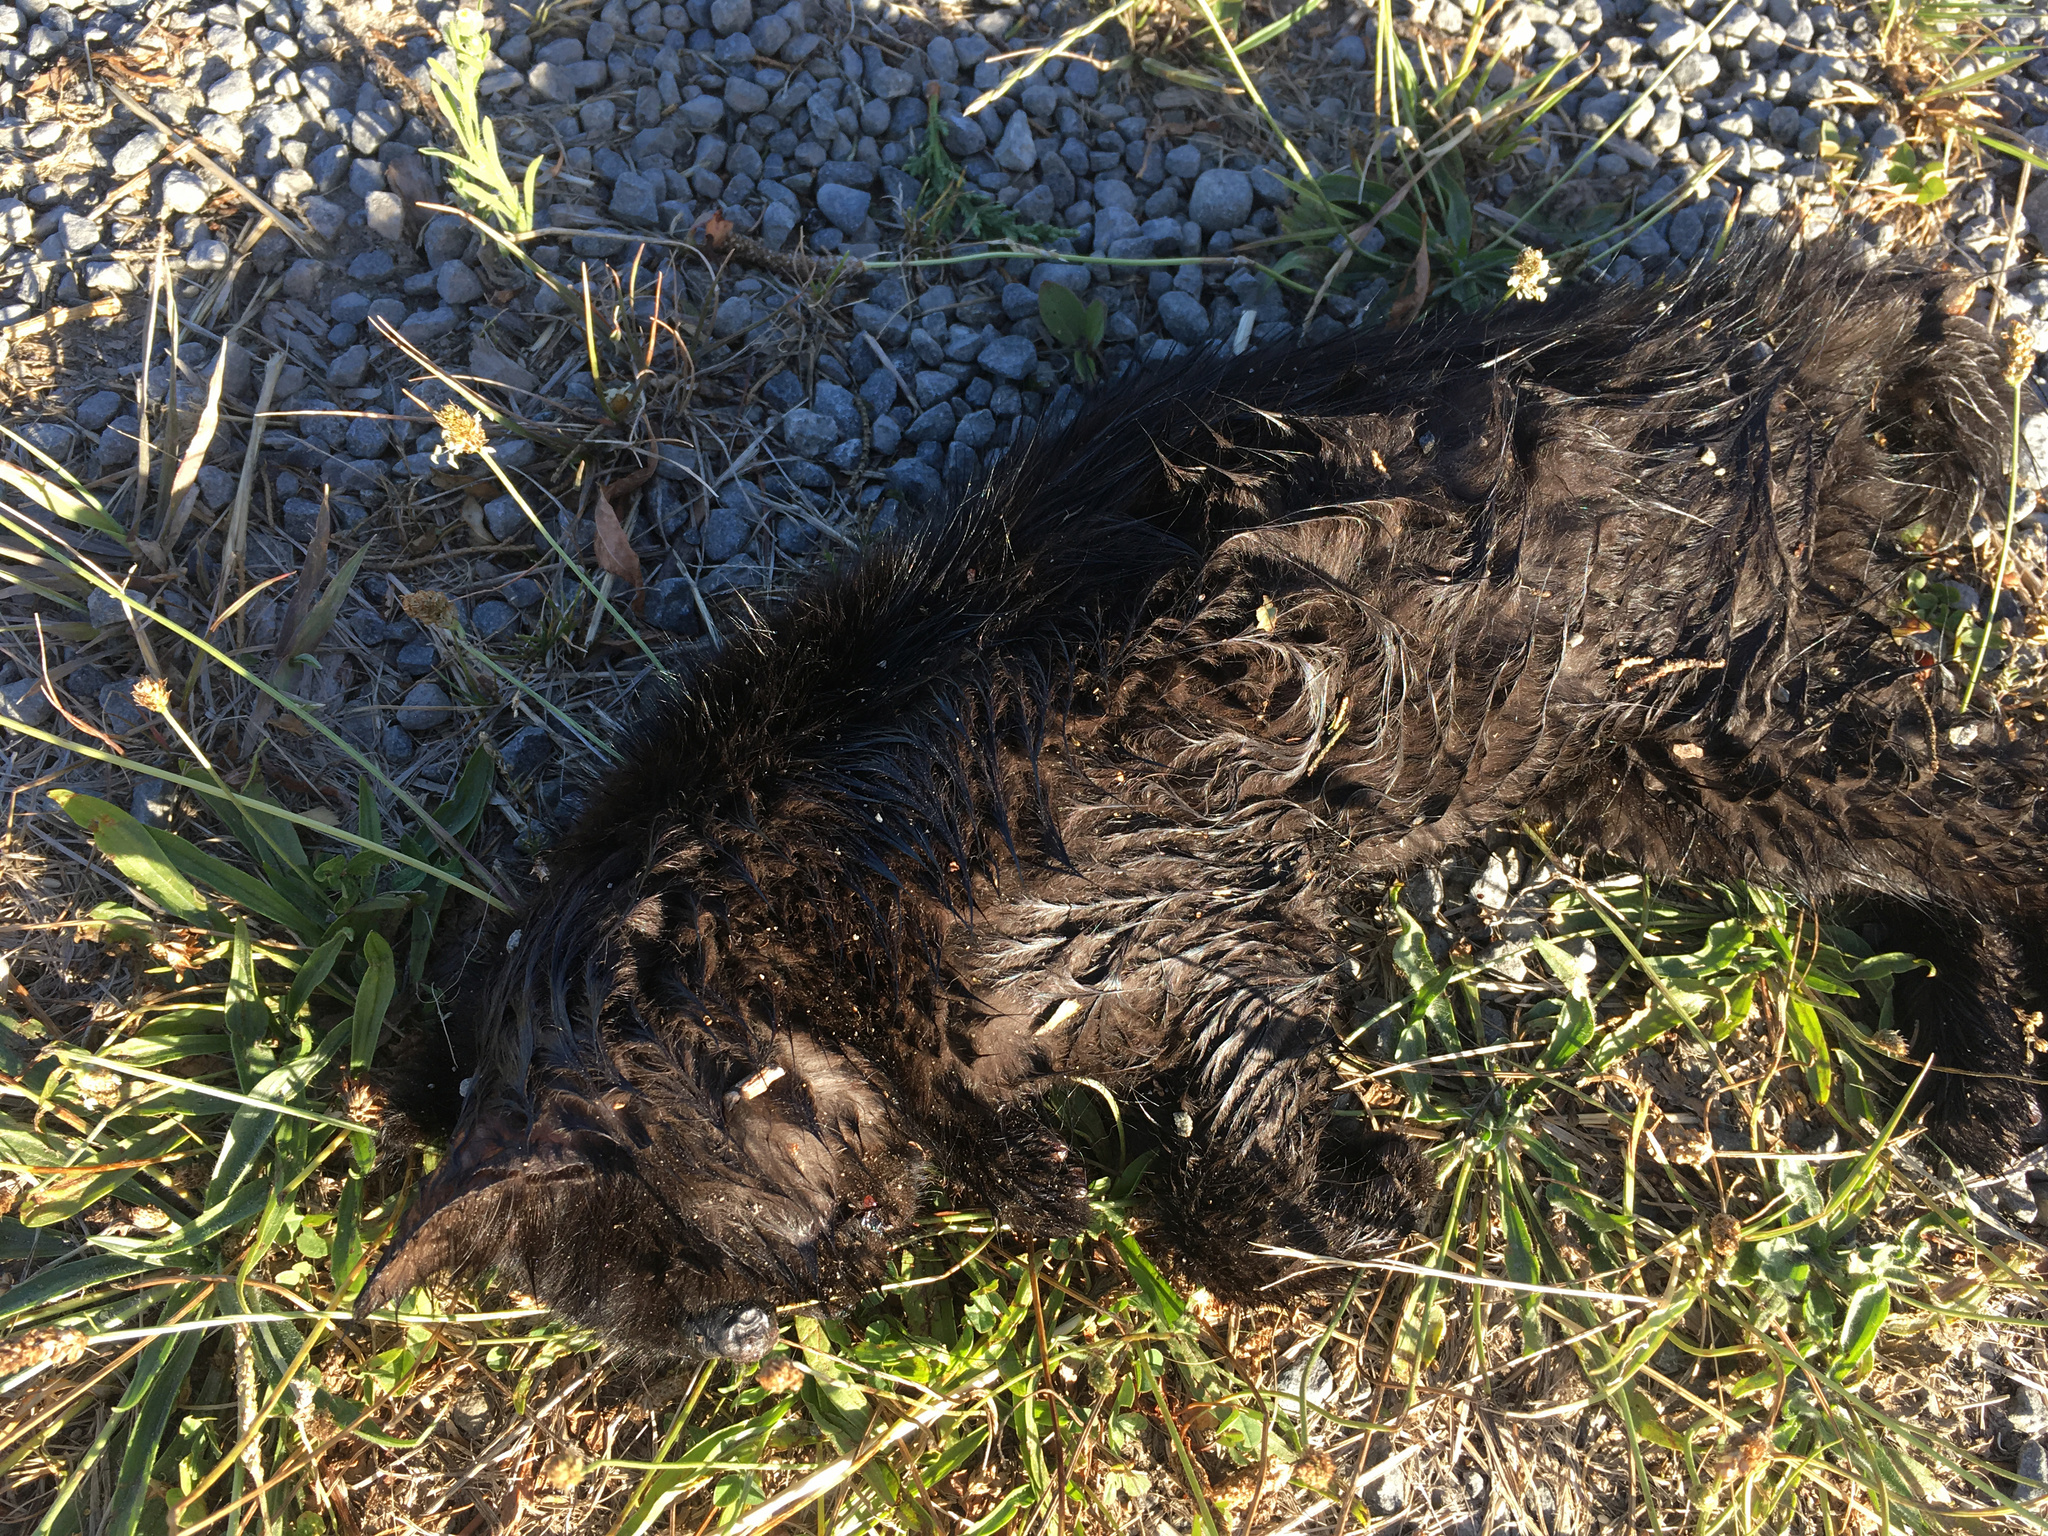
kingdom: Animalia
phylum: Chordata
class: Mammalia
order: Carnivora
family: Felidae
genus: Felis
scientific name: Felis catus
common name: Domestic cat
